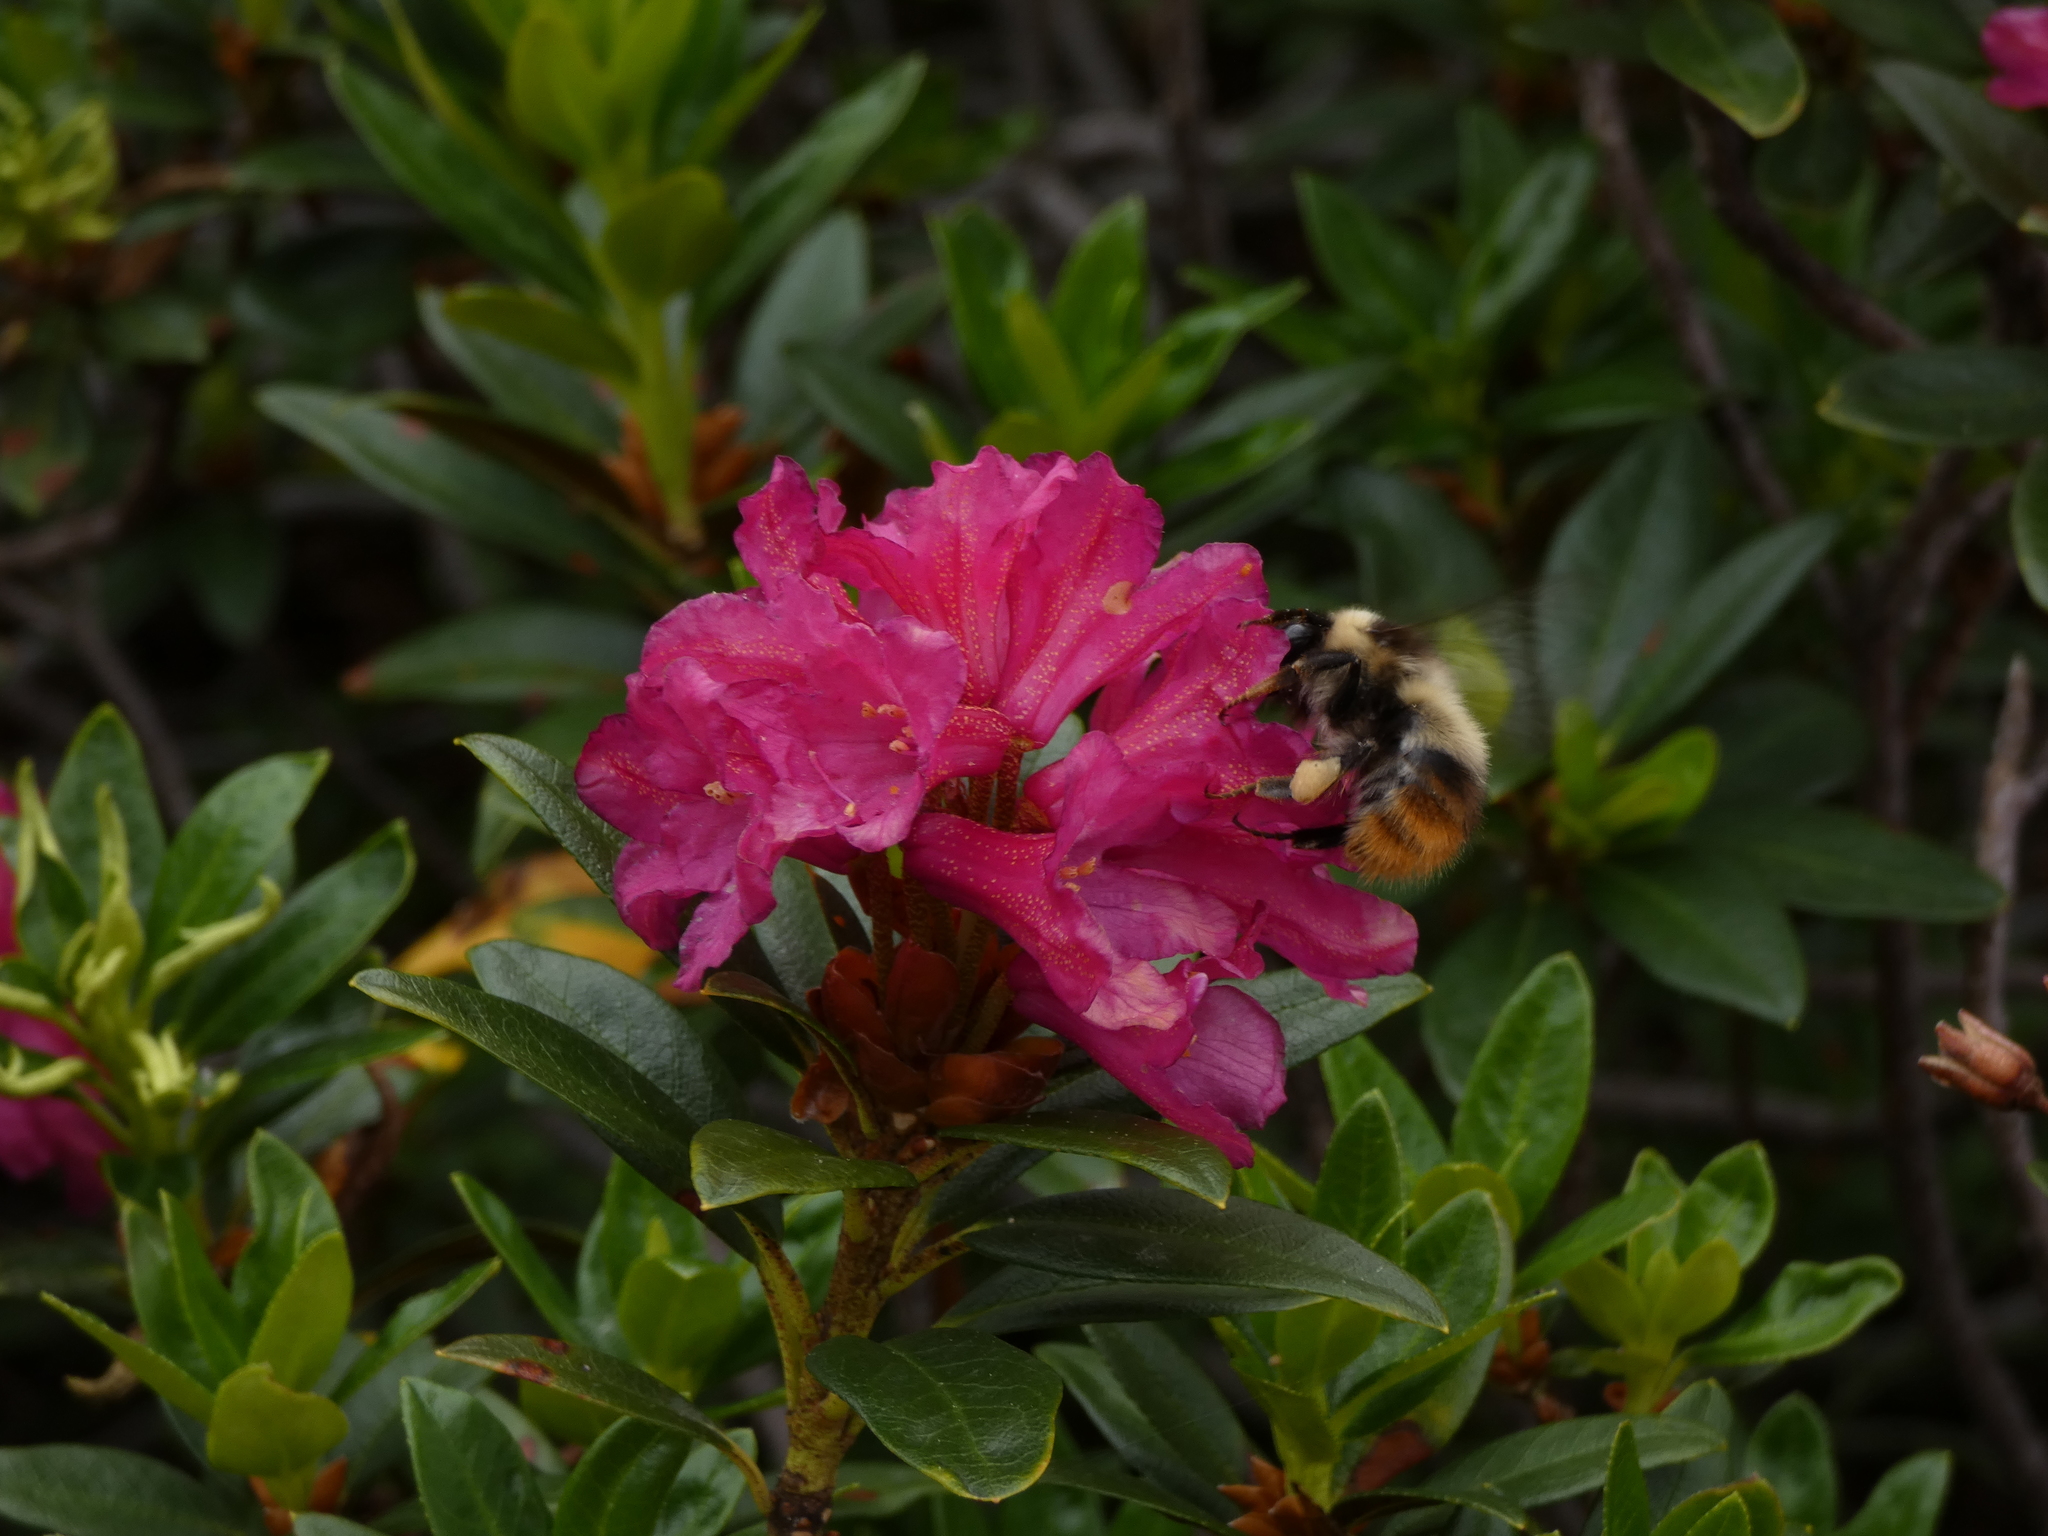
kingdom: Animalia
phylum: Arthropoda
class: Insecta
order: Hymenoptera
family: Apidae
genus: Bombus
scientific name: Bombus pyrenaeus
